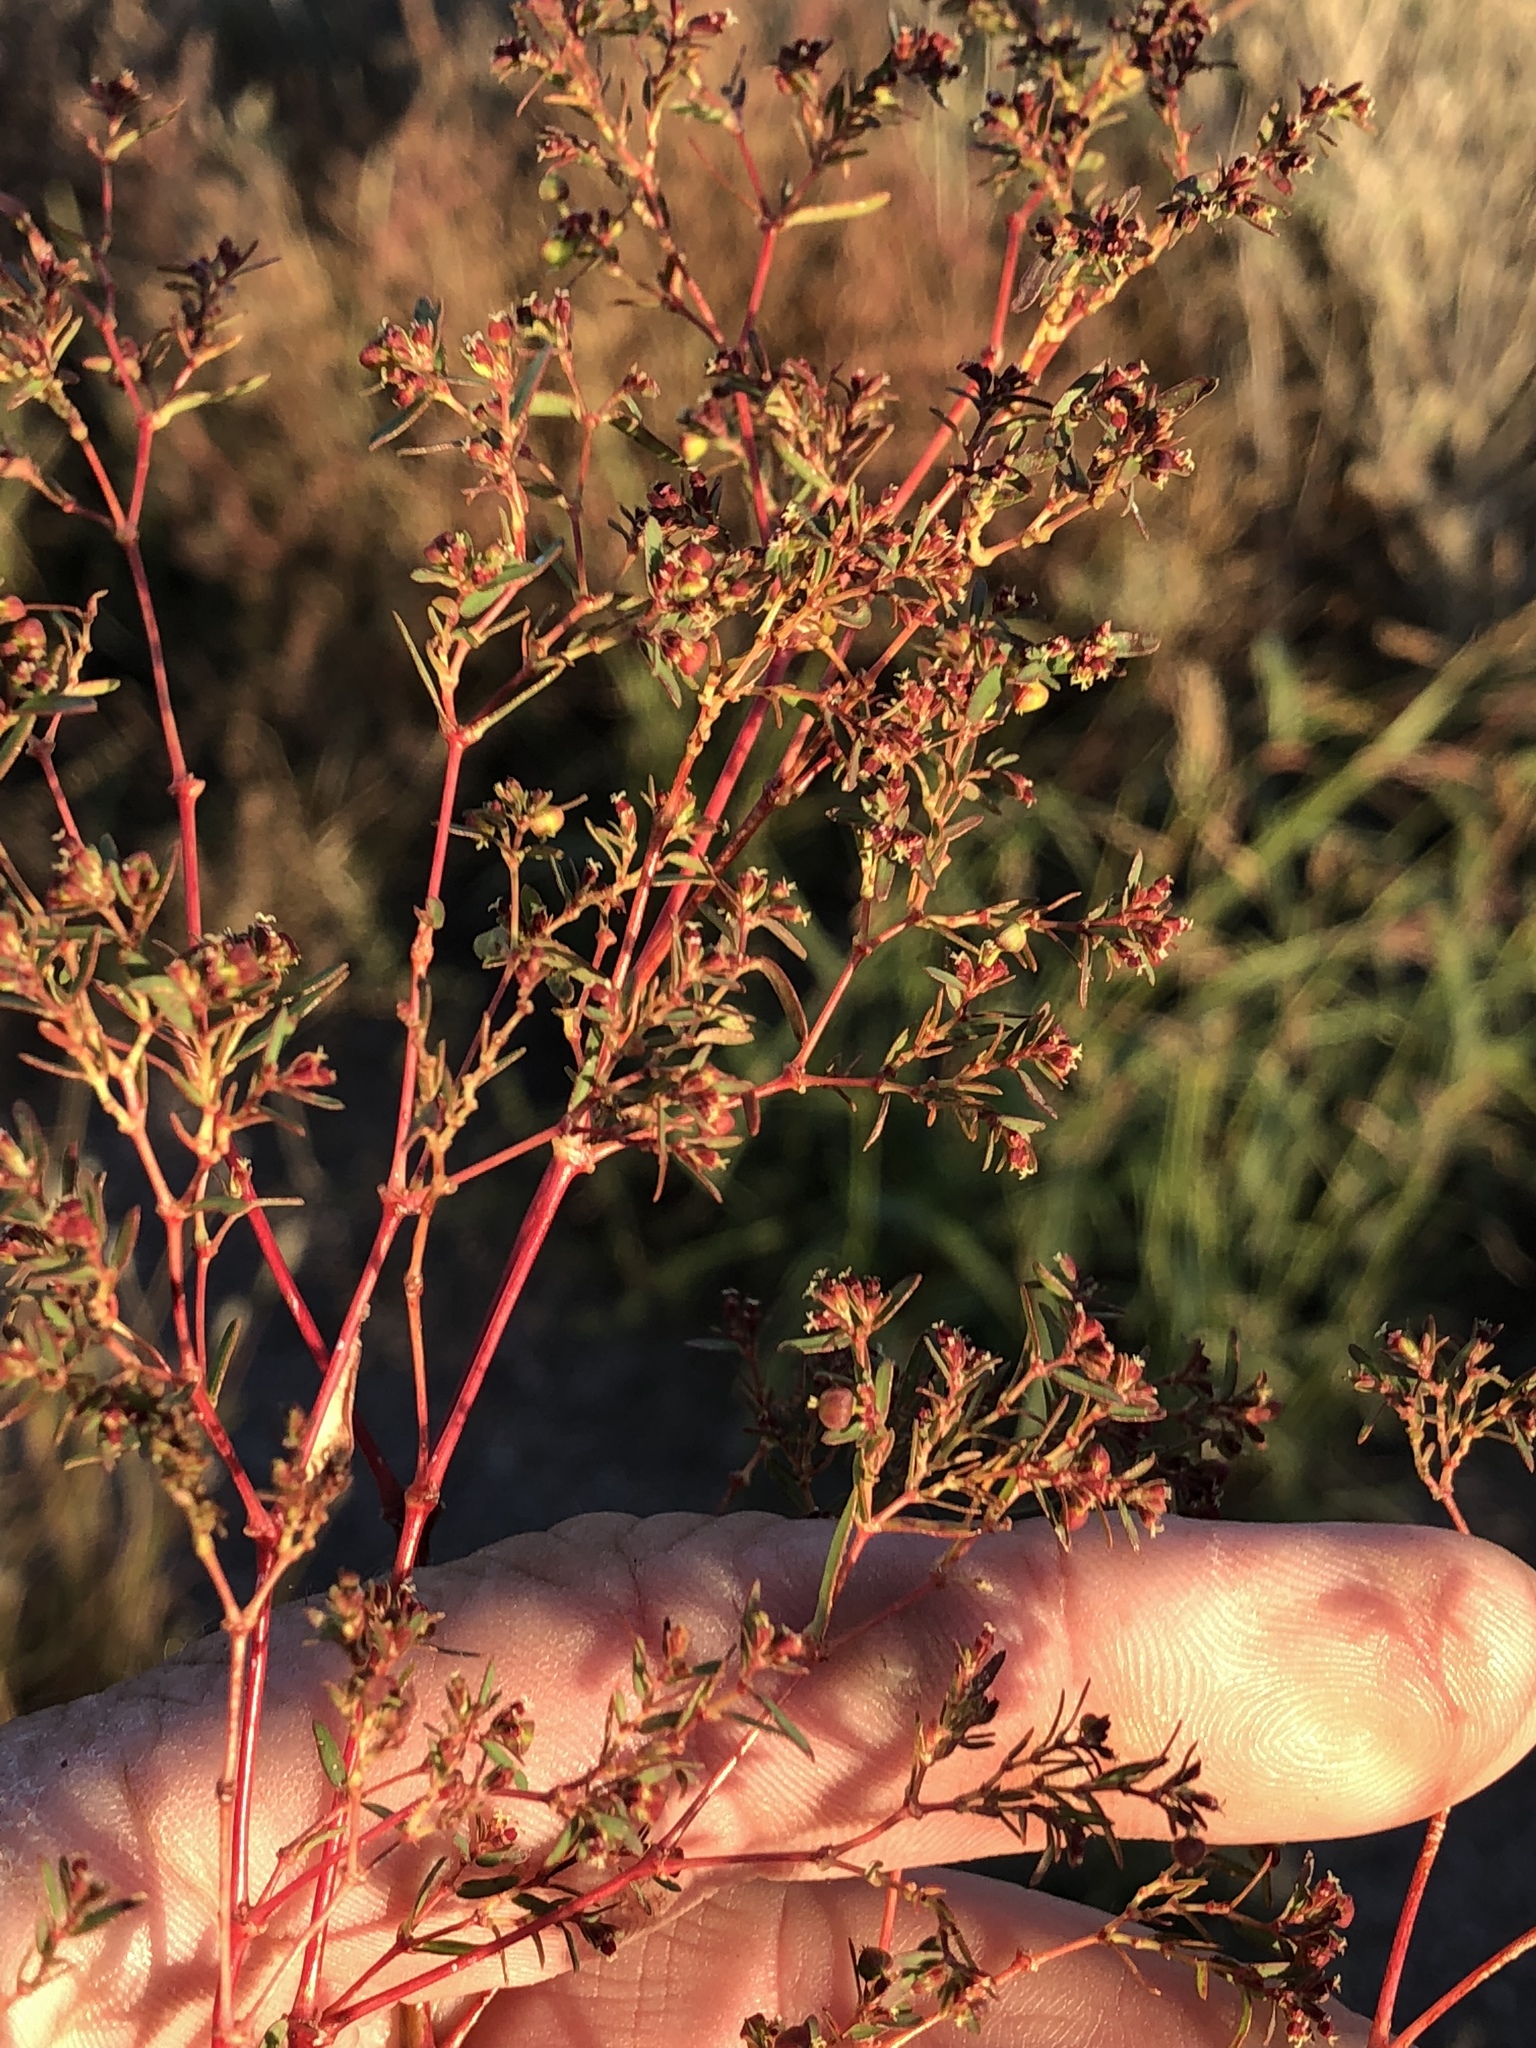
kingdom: Plantae
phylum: Tracheophyta
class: Magnoliopsida
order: Malpighiales
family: Euphorbiaceae
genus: Euphorbia
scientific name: Euphorbia hyssopifolia
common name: Hyssopleaf sandmat
